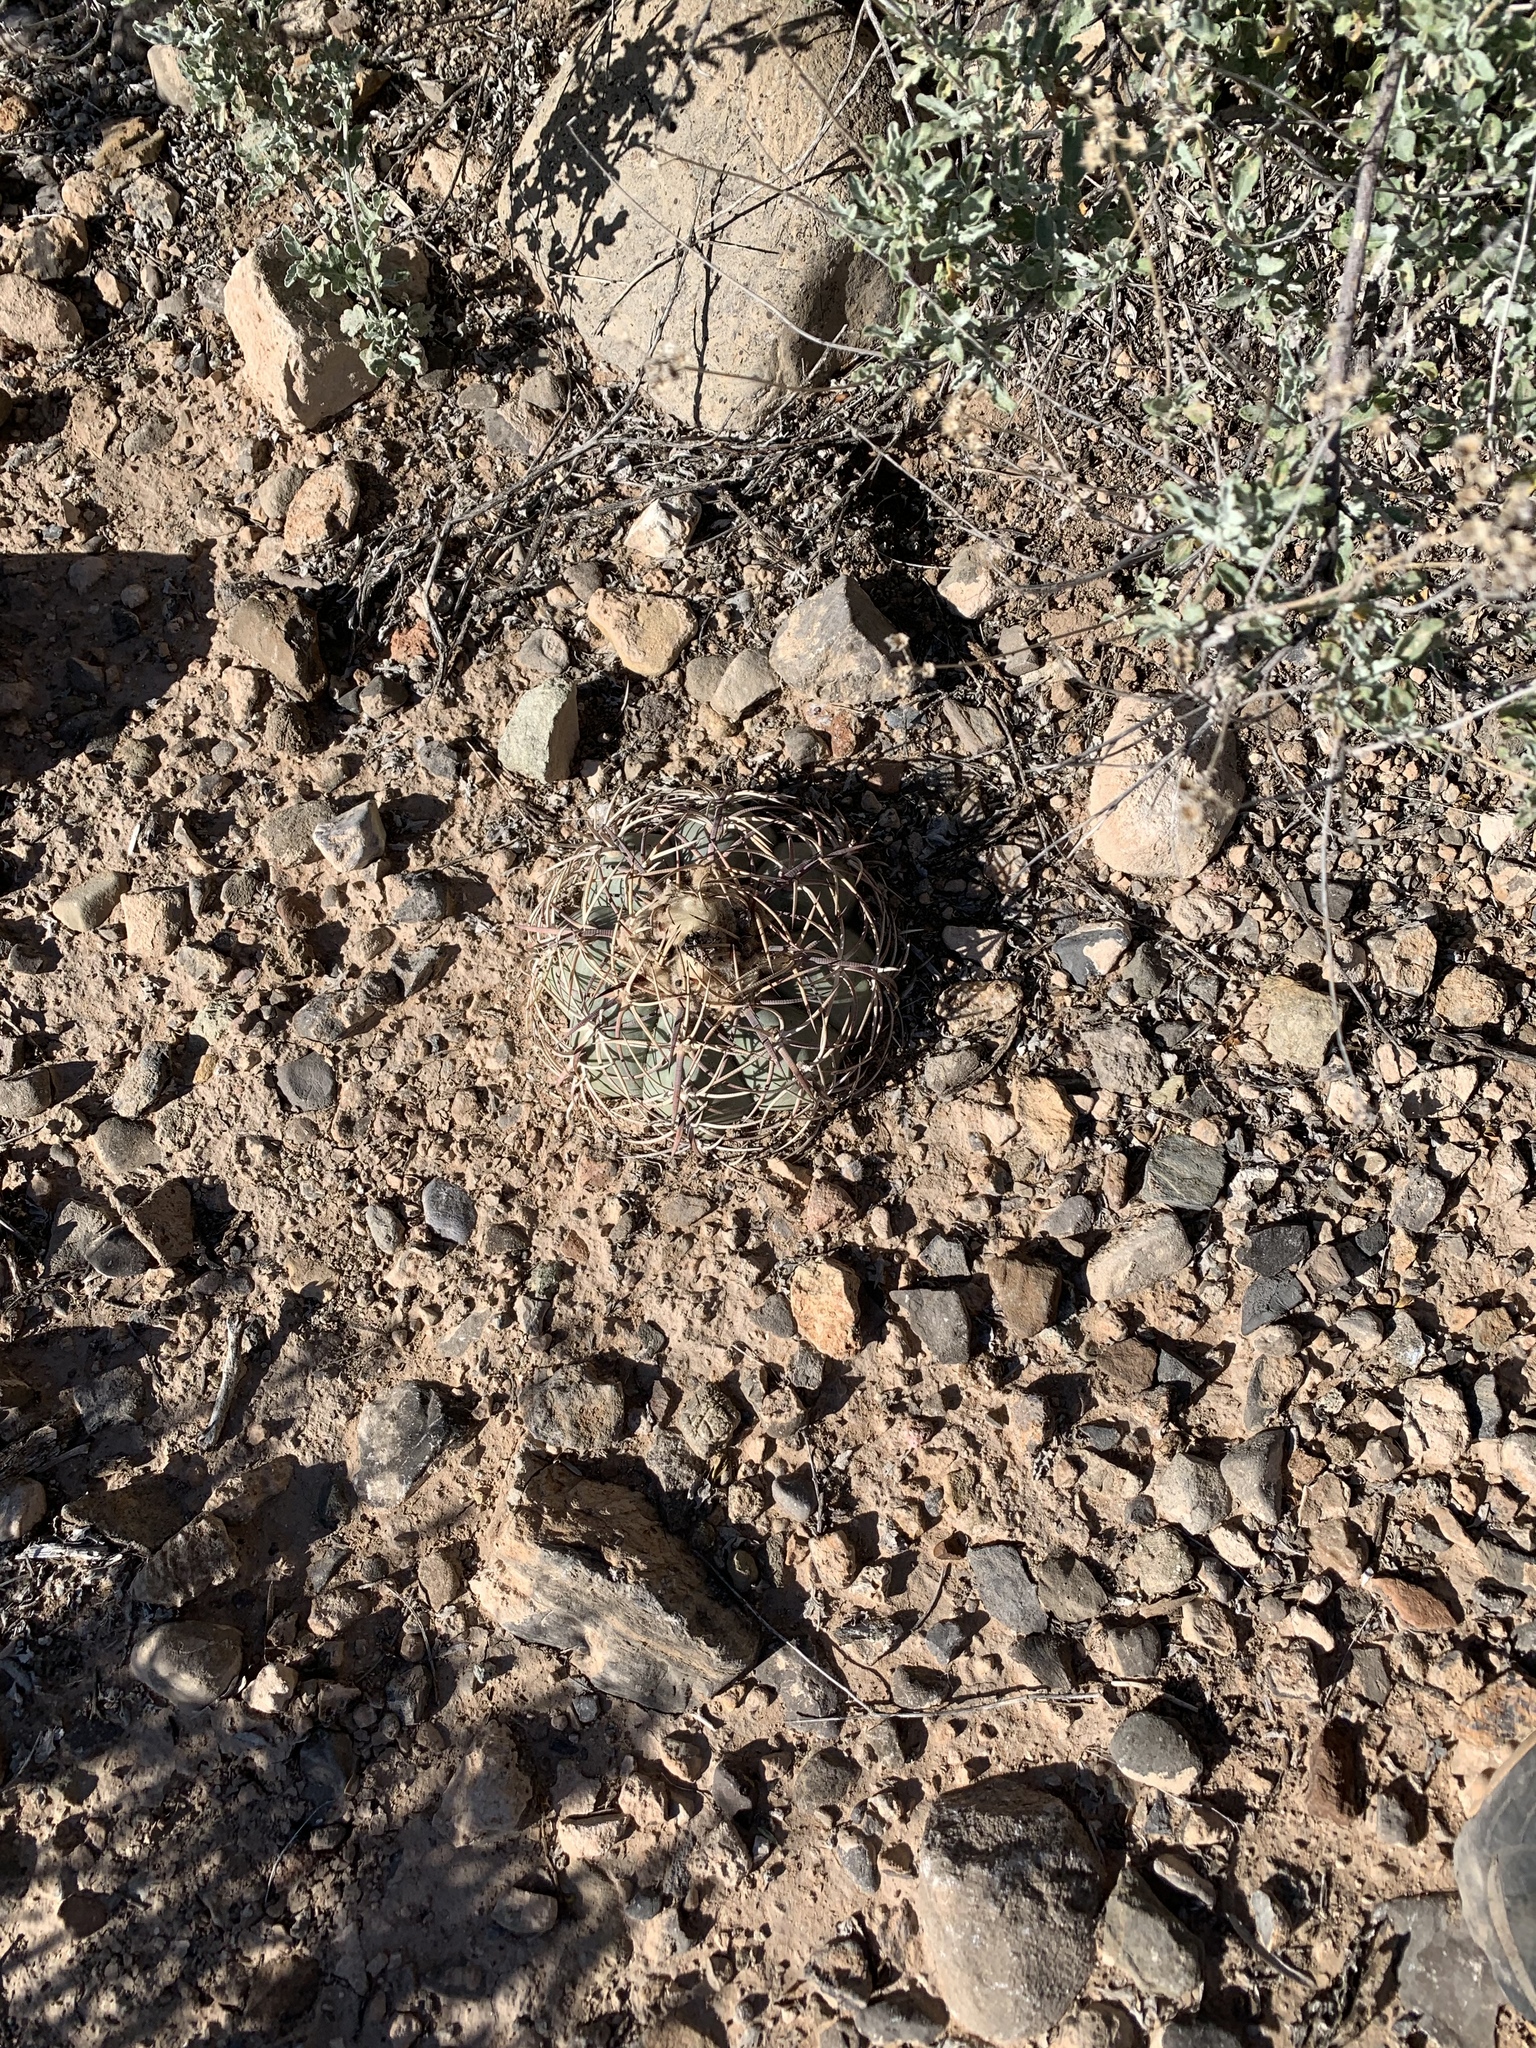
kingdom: Plantae
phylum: Tracheophyta
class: Magnoliopsida
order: Caryophyllales
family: Cactaceae
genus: Echinocactus
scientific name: Echinocactus horizonthalonius
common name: Devilshead
